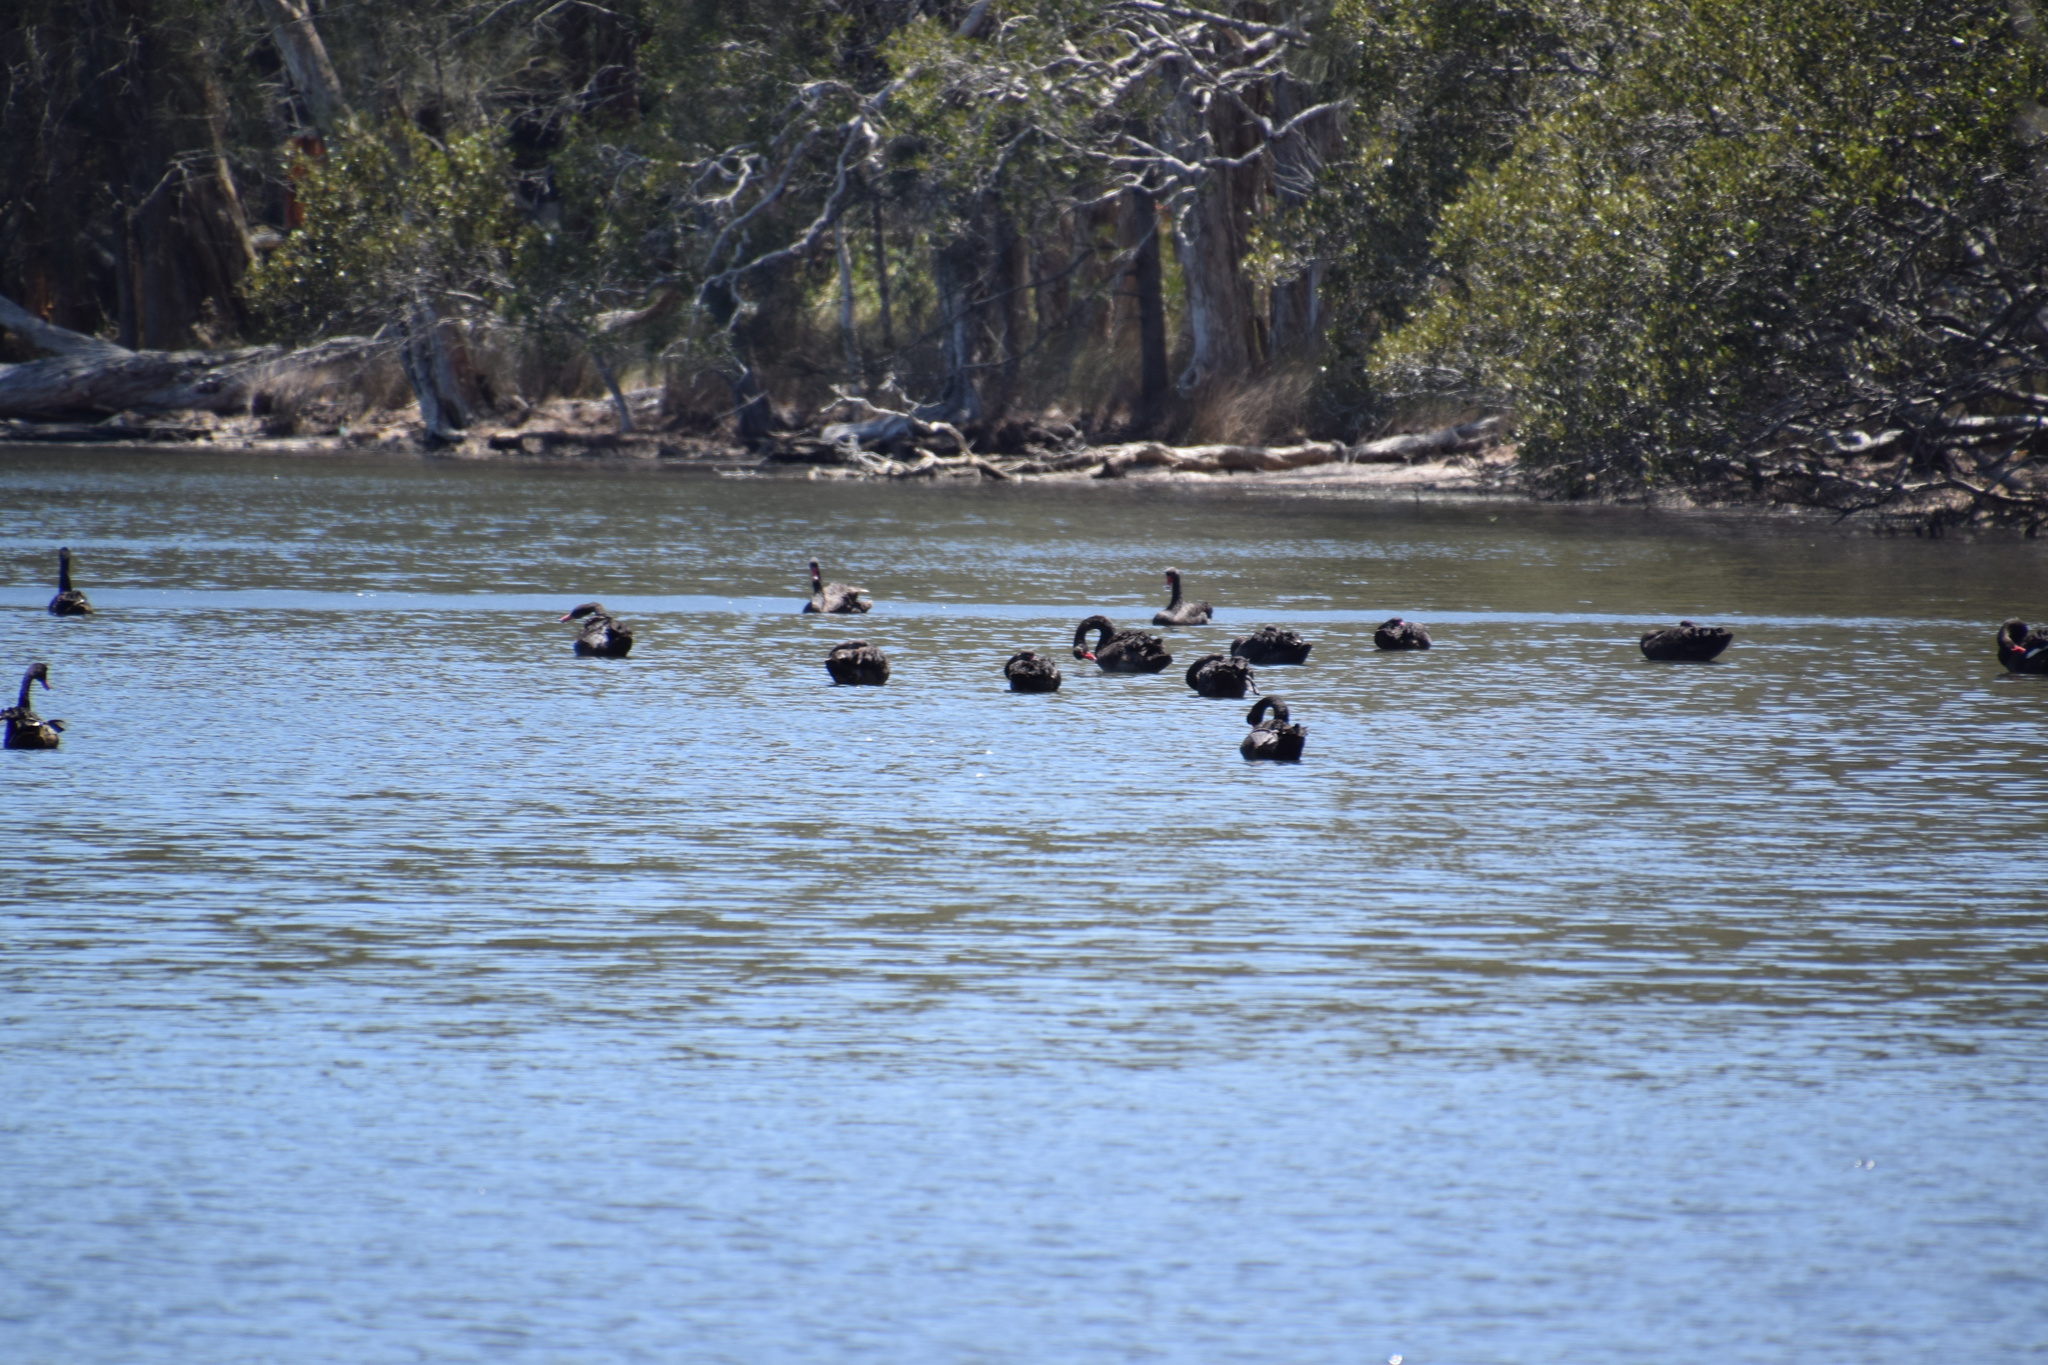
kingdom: Animalia
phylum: Chordata
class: Aves
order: Anseriformes
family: Anatidae
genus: Cygnus
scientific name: Cygnus atratus
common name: Black swan
